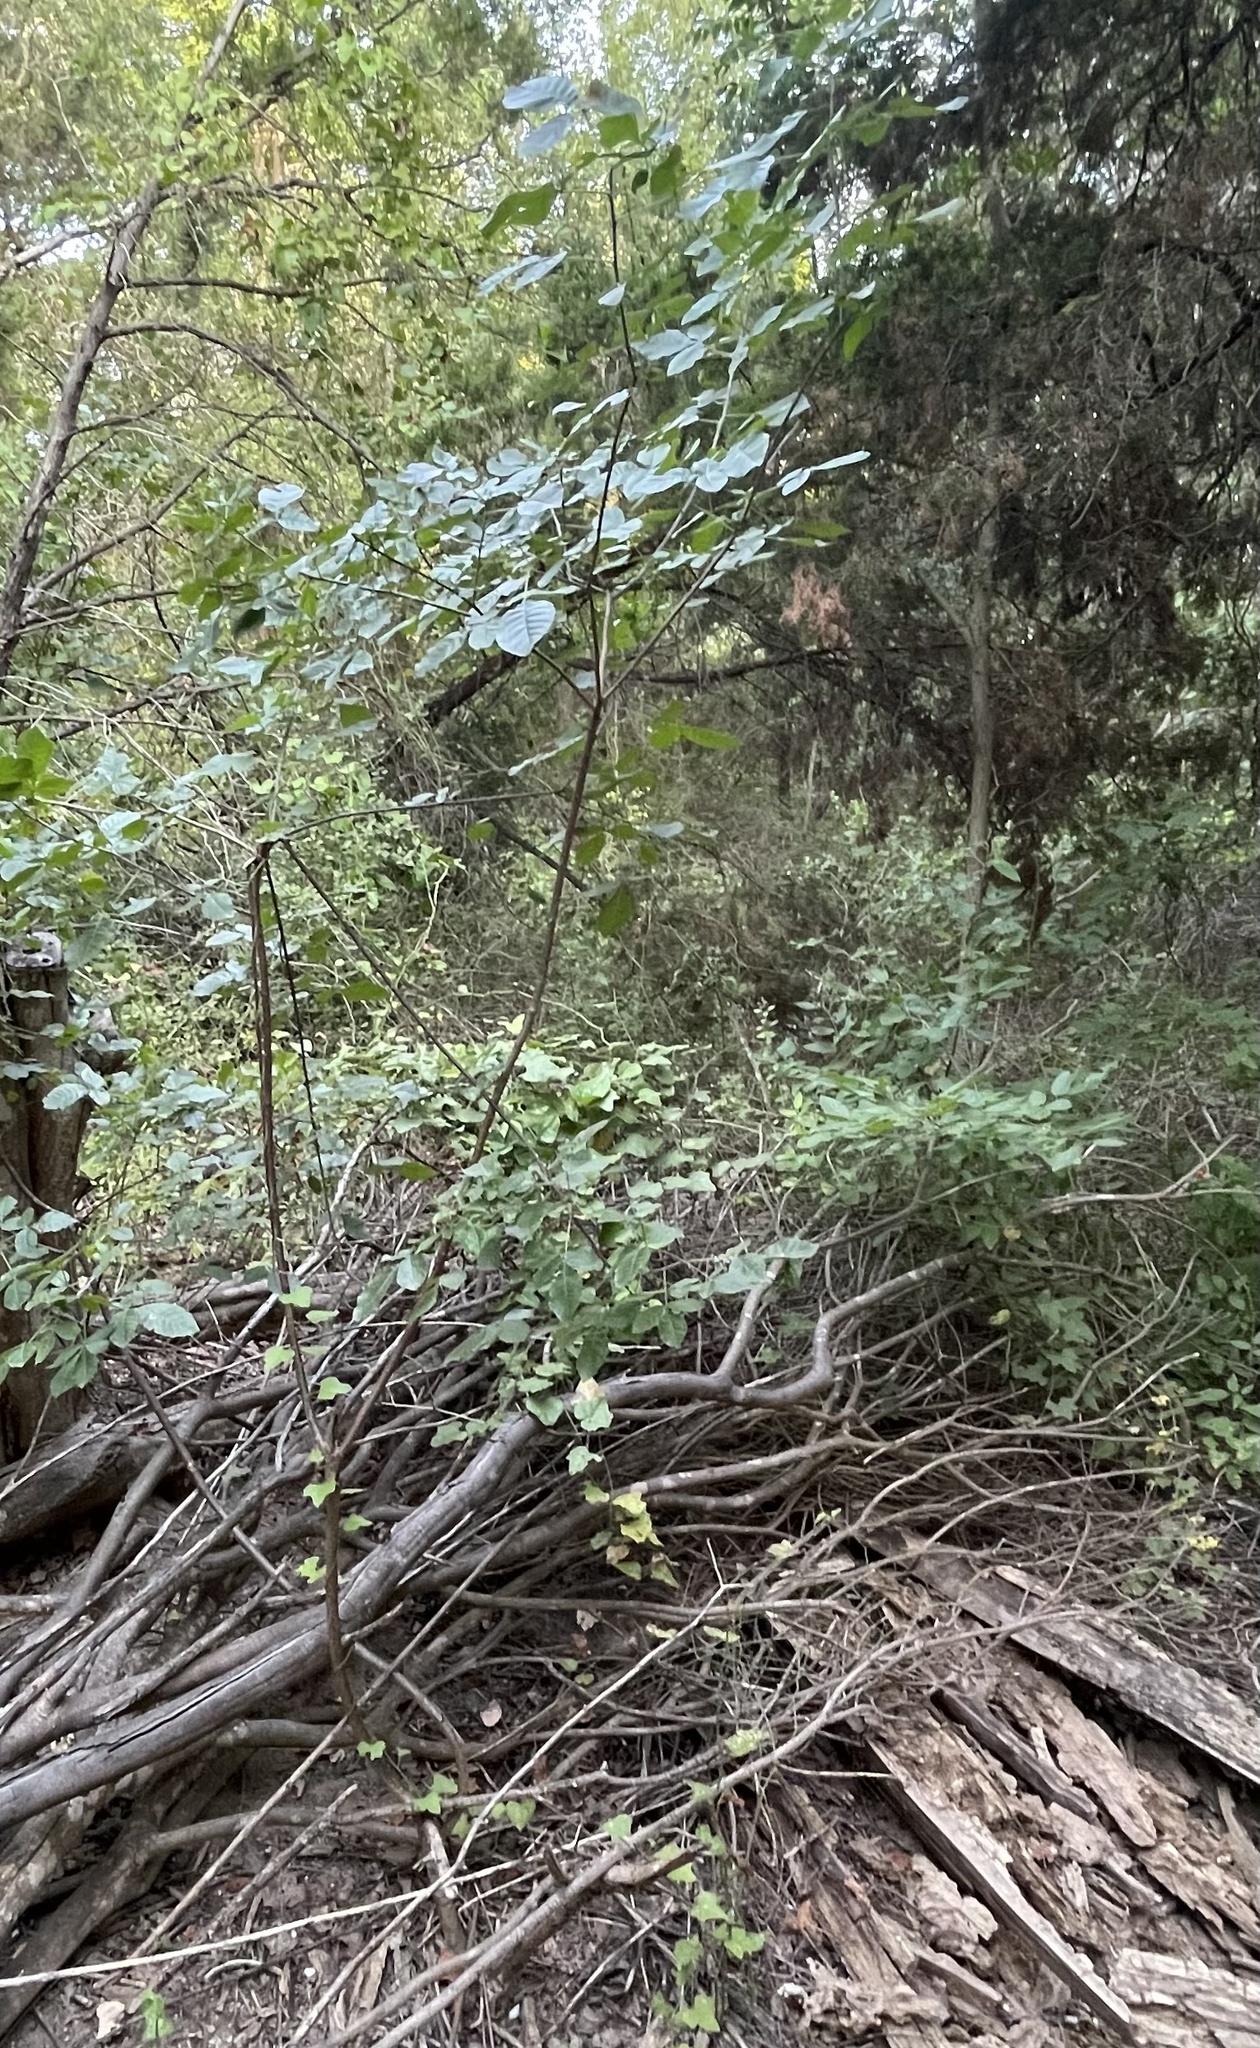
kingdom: Plantae
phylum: Tracheophyta
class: Magnoliopsida
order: Lamiales
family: Oleaceae
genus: Ligustrum
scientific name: Ligustrum lucidum
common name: Glossy privet
